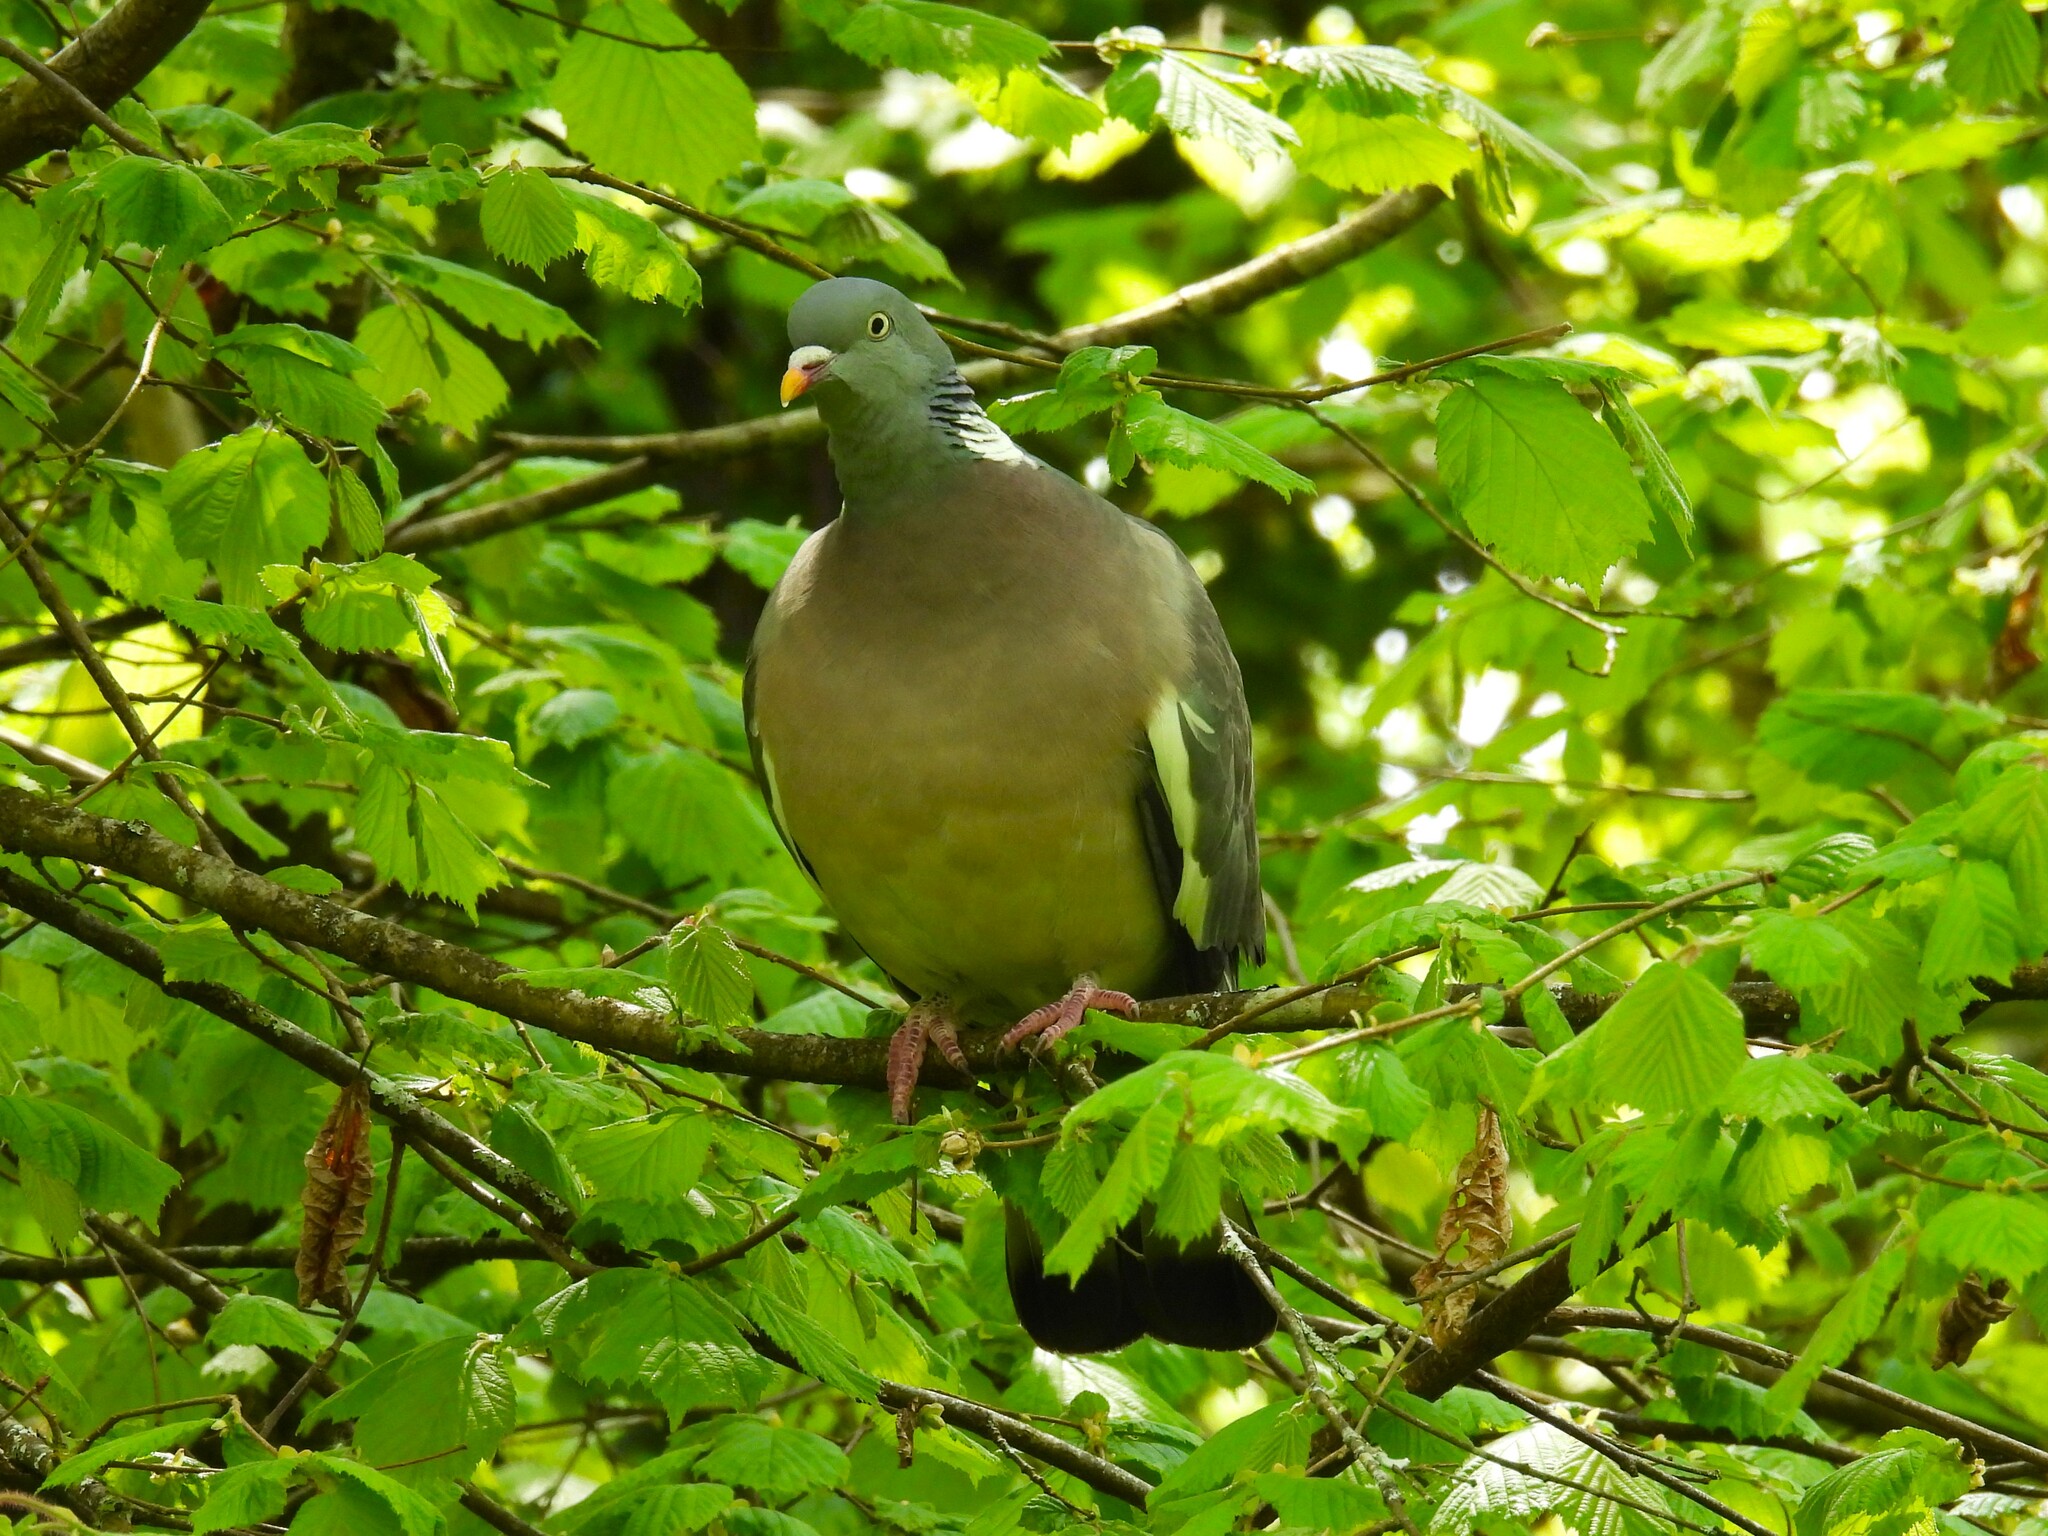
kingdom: Animalia
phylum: Chordata
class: Aves
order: Columbiformes
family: Columbidae
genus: Columba
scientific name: Columba palumbus
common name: Common wood pigeon
